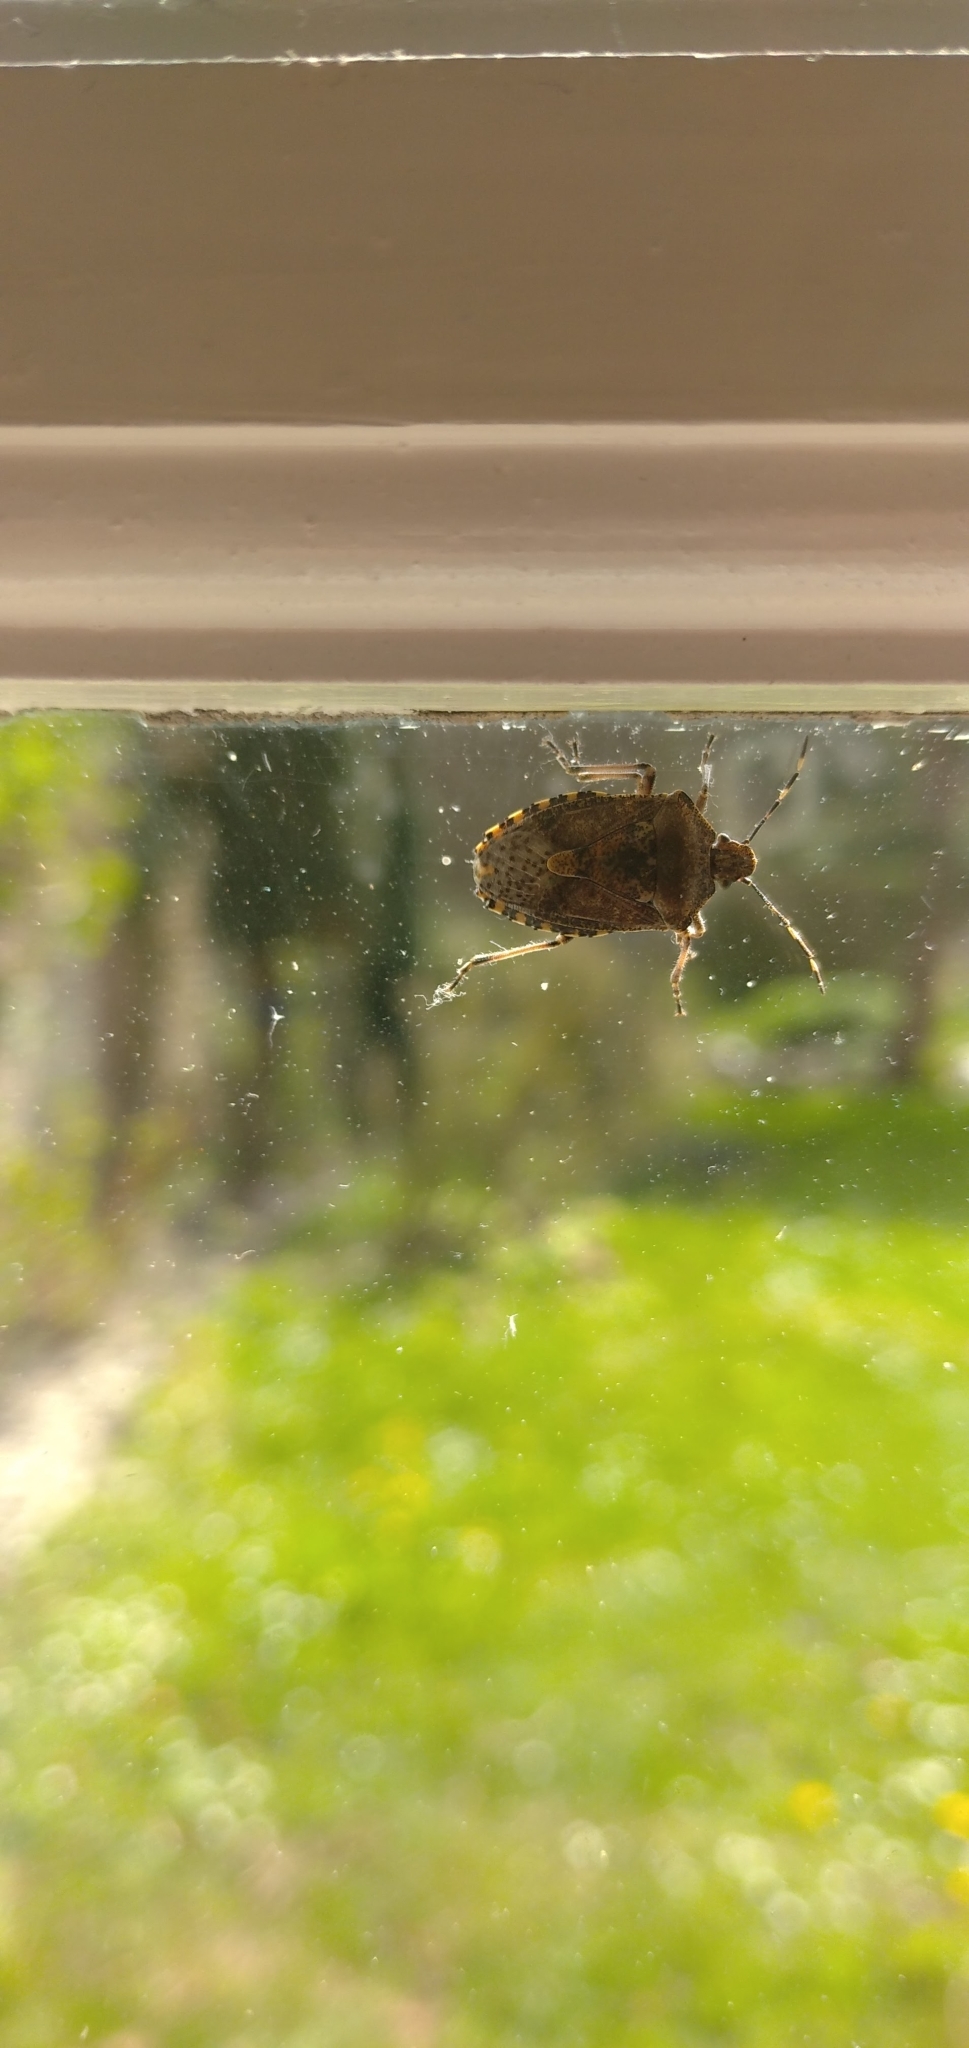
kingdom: Animalia
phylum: Arthropoda
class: Insecta
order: Hemiptera
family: Pentatomidae
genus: Rhaphigaster
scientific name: Rhaphigaster nebulosa
